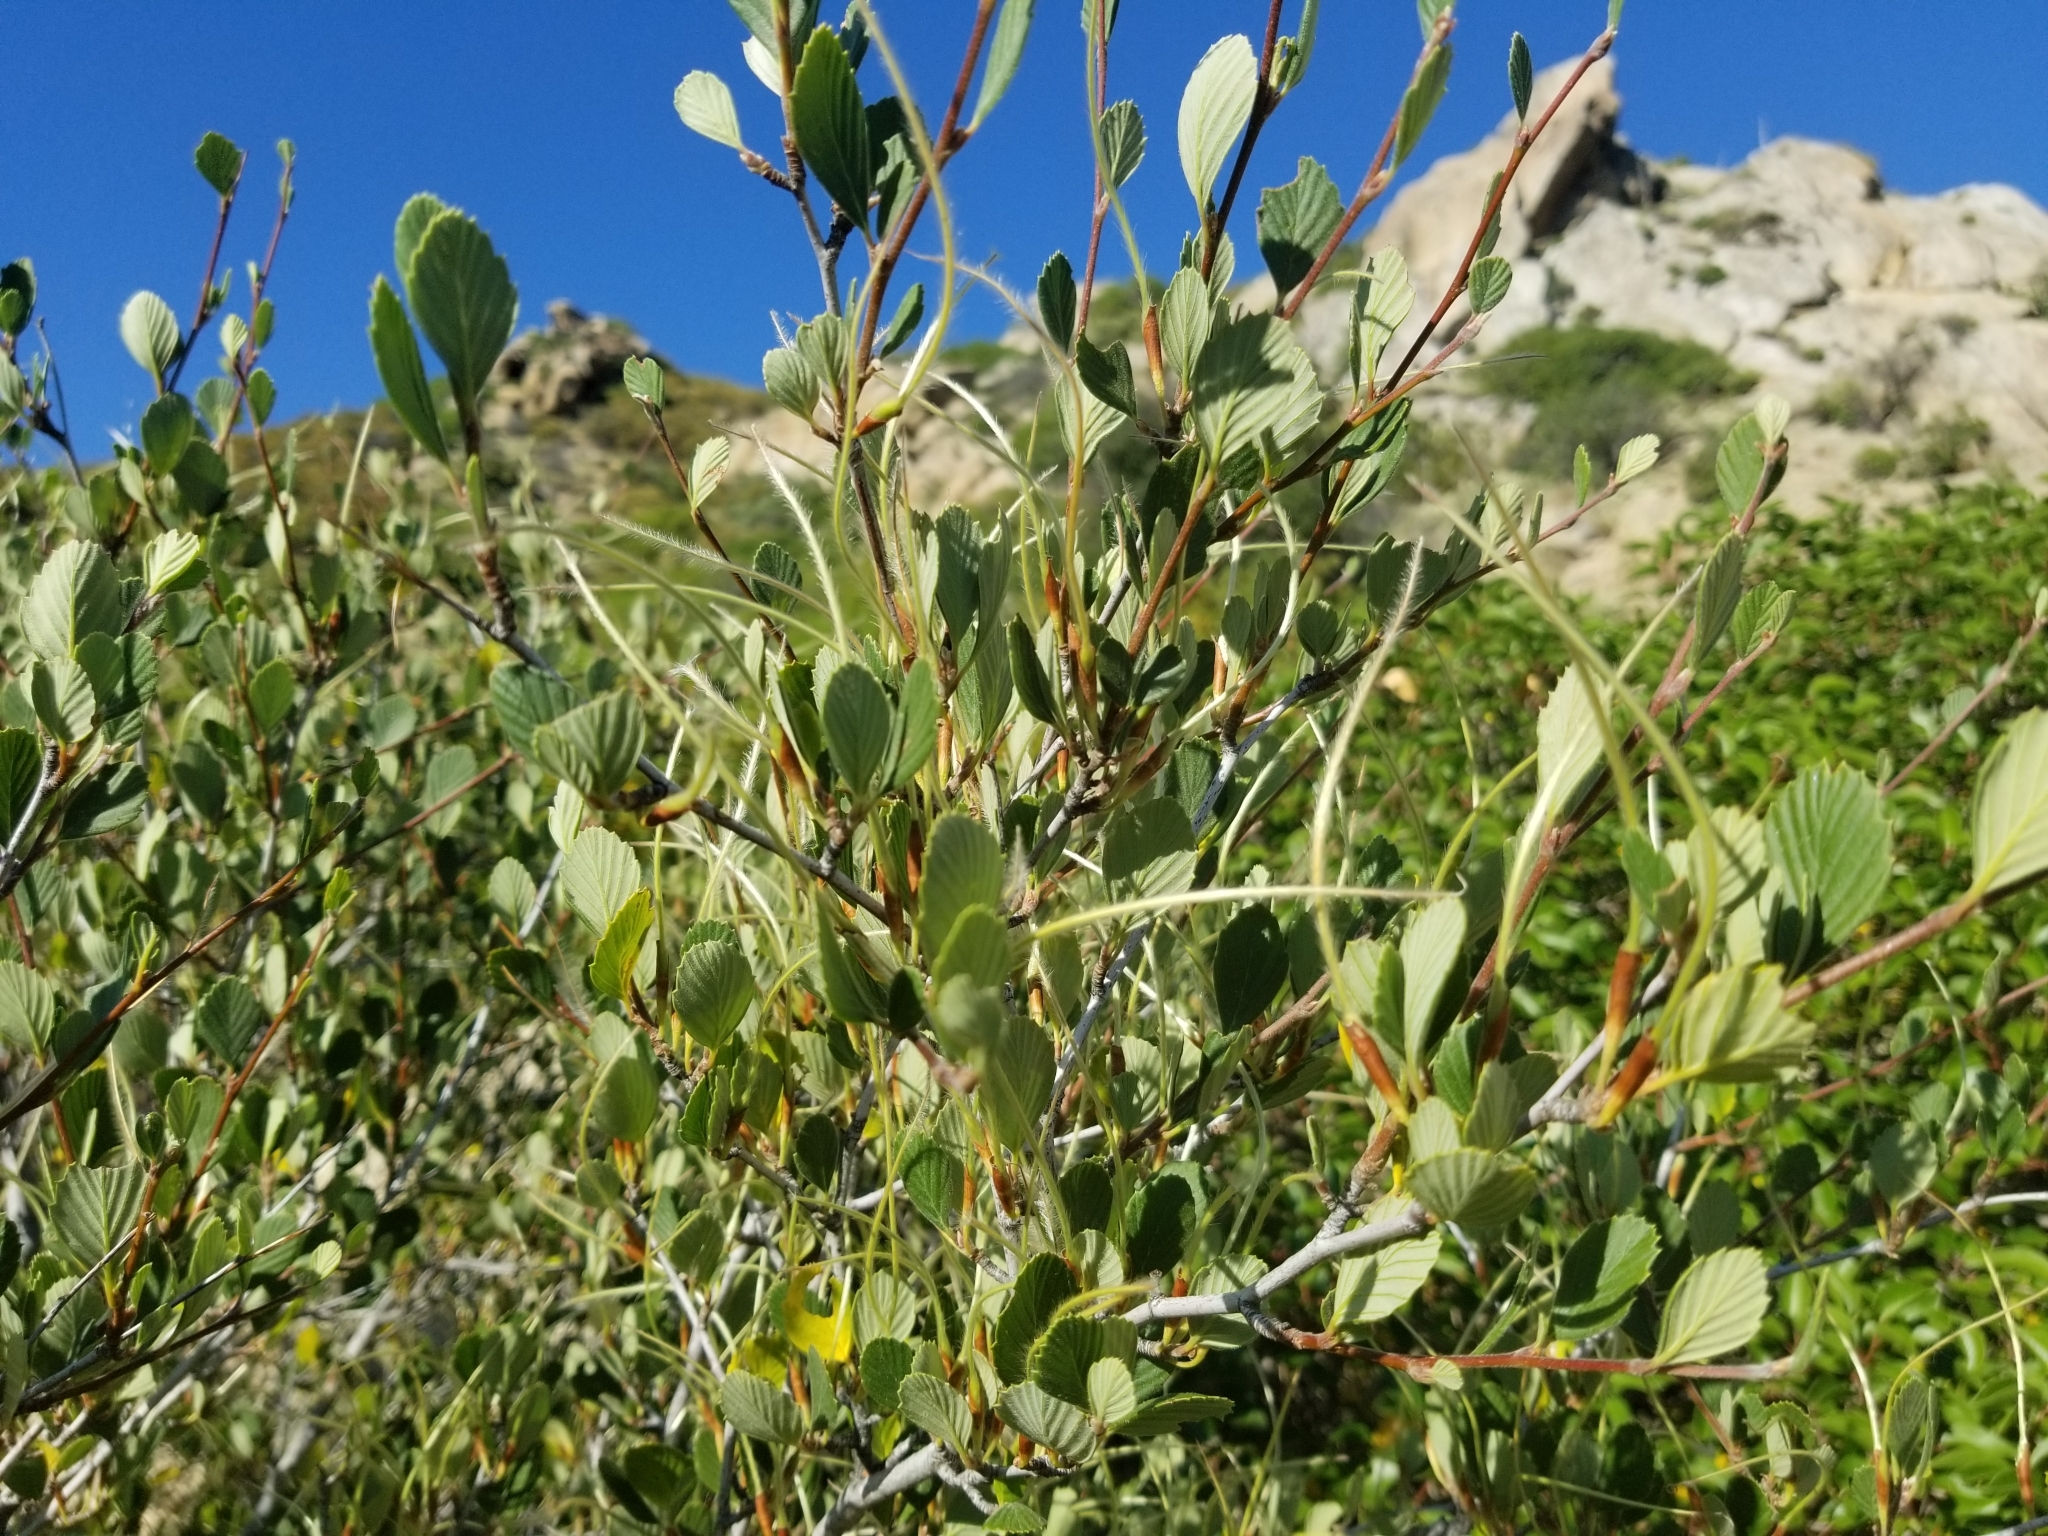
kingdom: Plantae
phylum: Tracheophyta
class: Magnoliopsida
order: Rosales
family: Rosaceae
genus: Cercocarpus
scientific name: Cercocarpus betuloides
